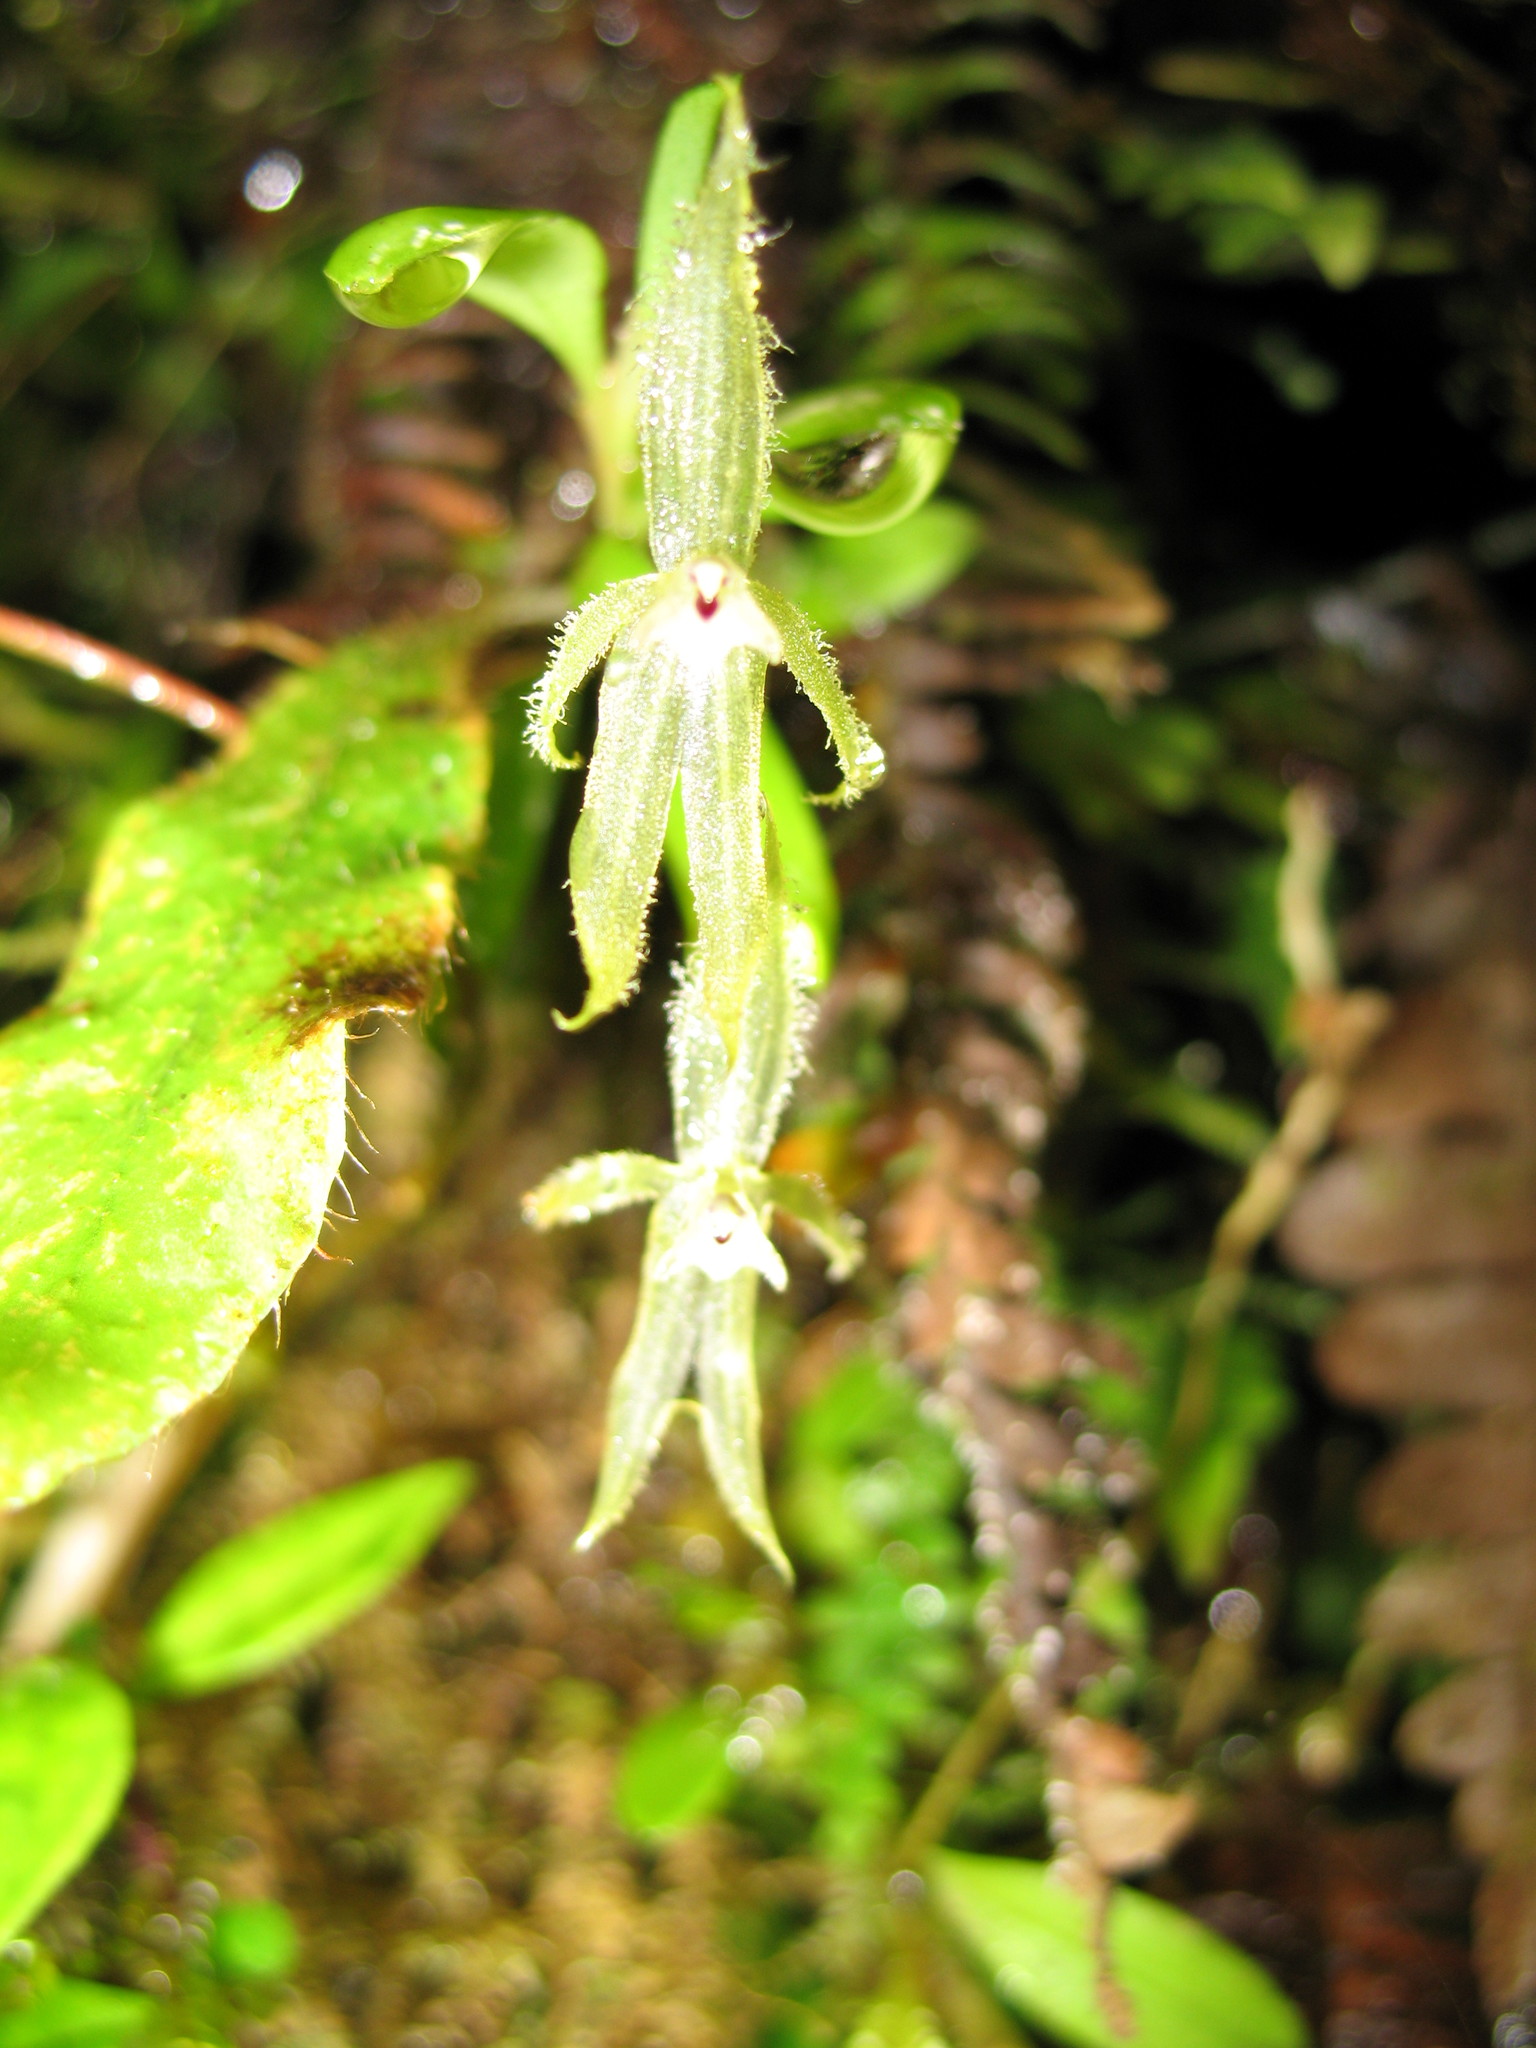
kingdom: Plantae
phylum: Tracheophyta
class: Liliopsida
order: Asparagales
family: Orchidaceae
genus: Andinia
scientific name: Andinia sunchubambensis
